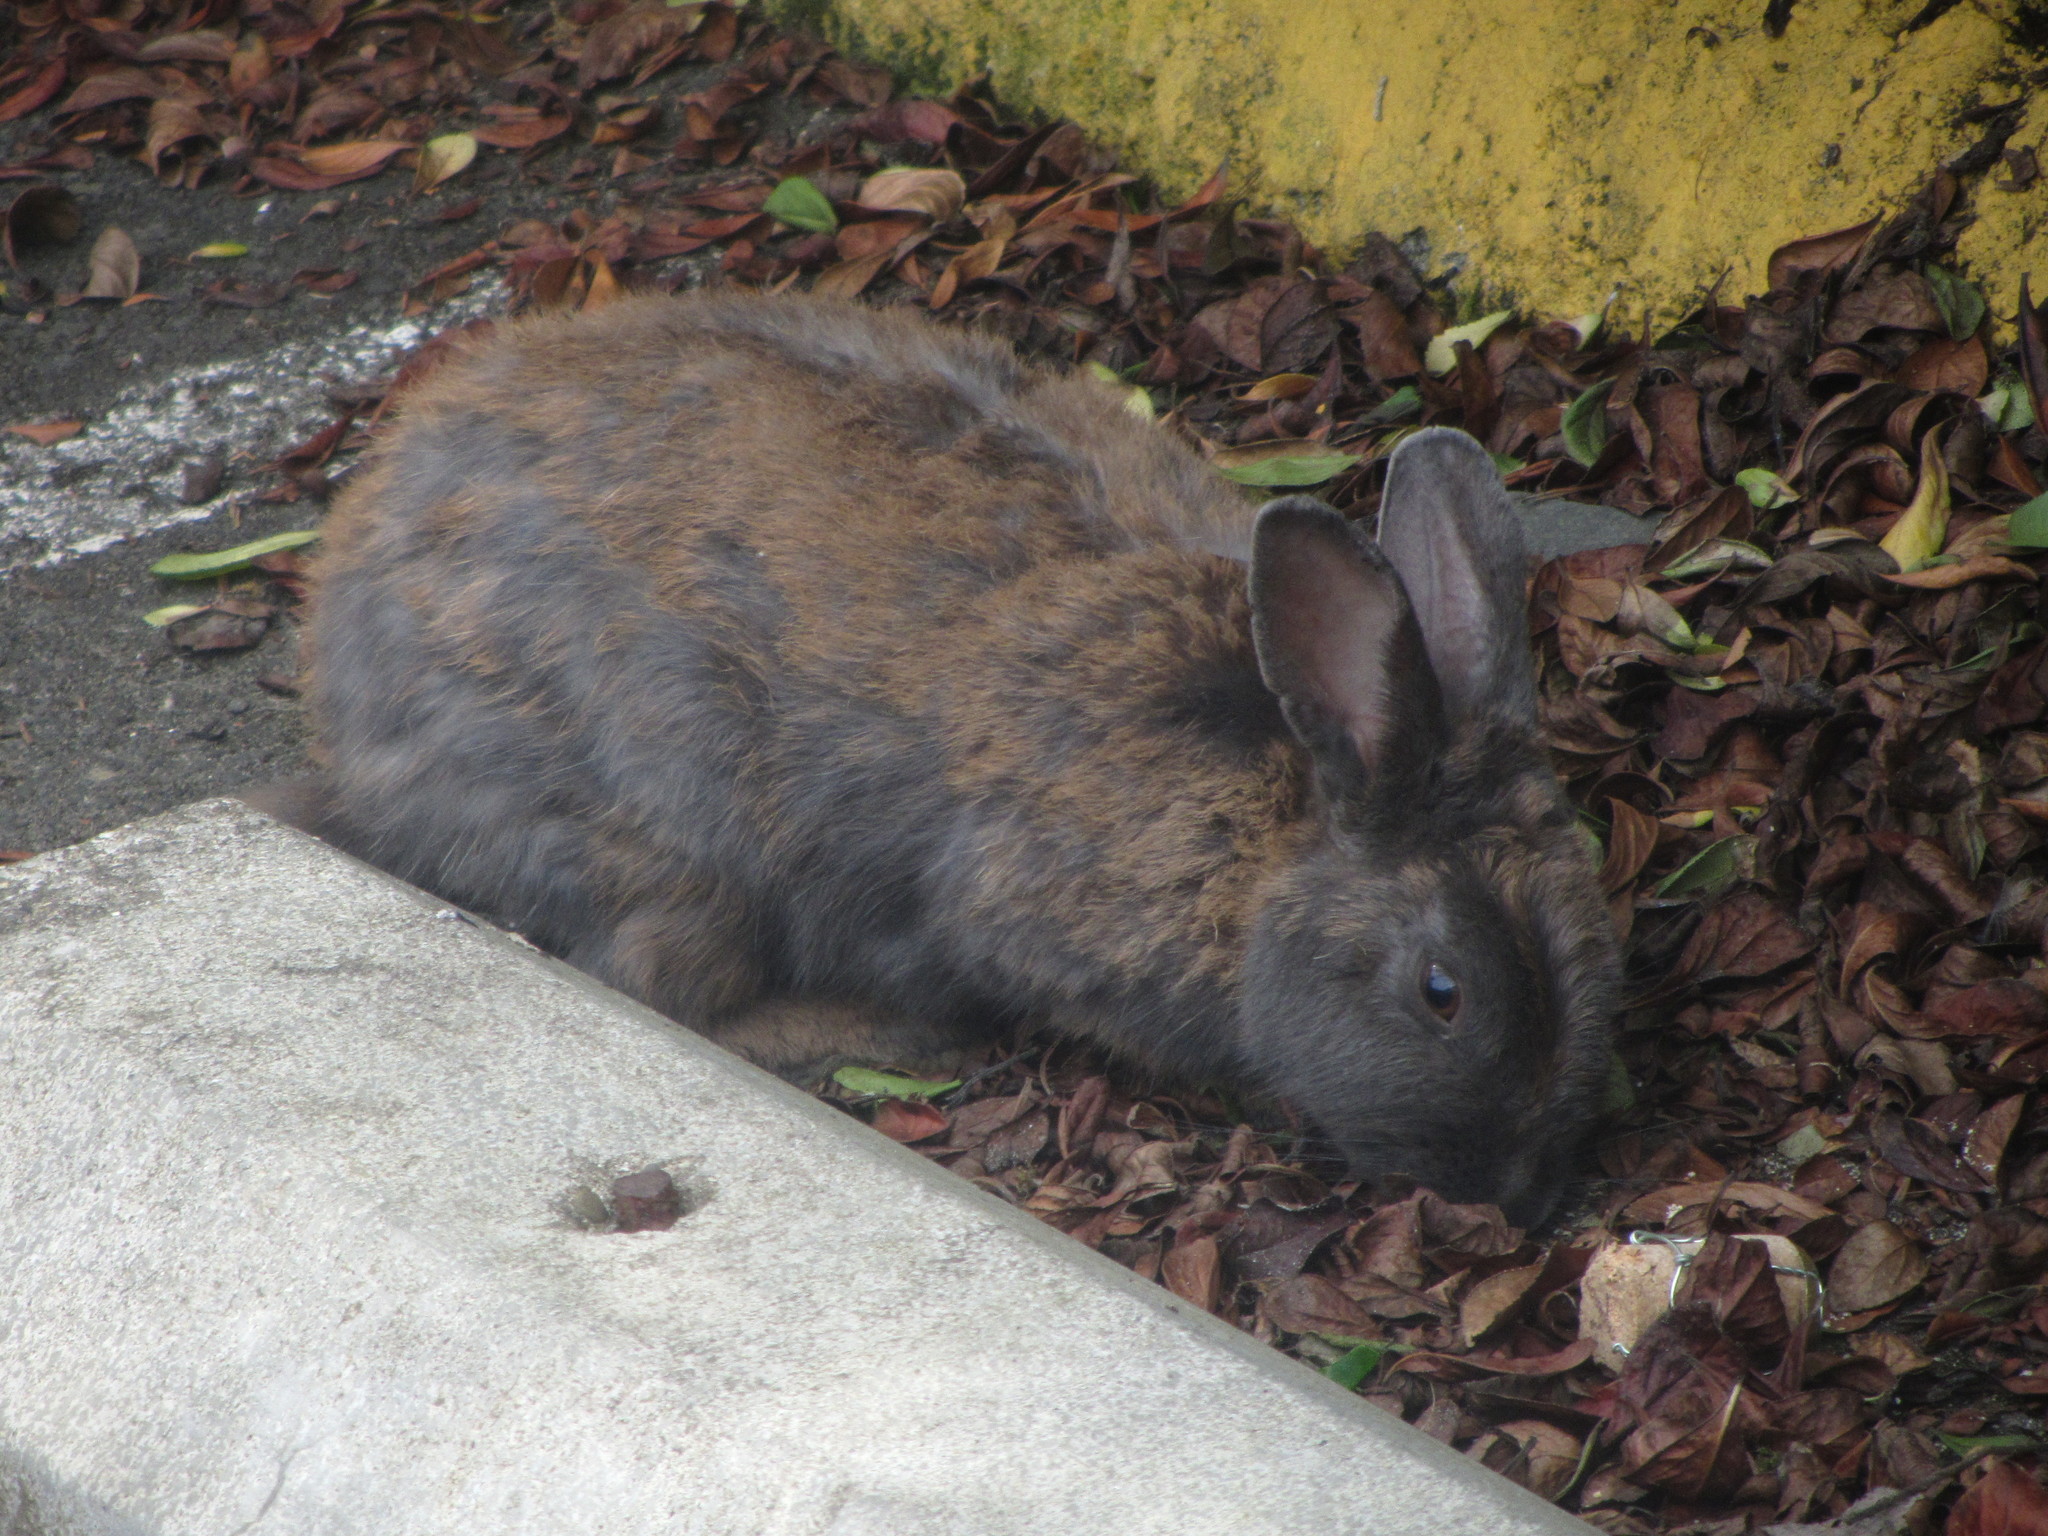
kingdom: Animalia
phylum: Chordata
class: Mammalia
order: Lagomorpha
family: Leporidae
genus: Oryctolagus
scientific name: Oryctolagus cuniculus
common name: European rabbit
